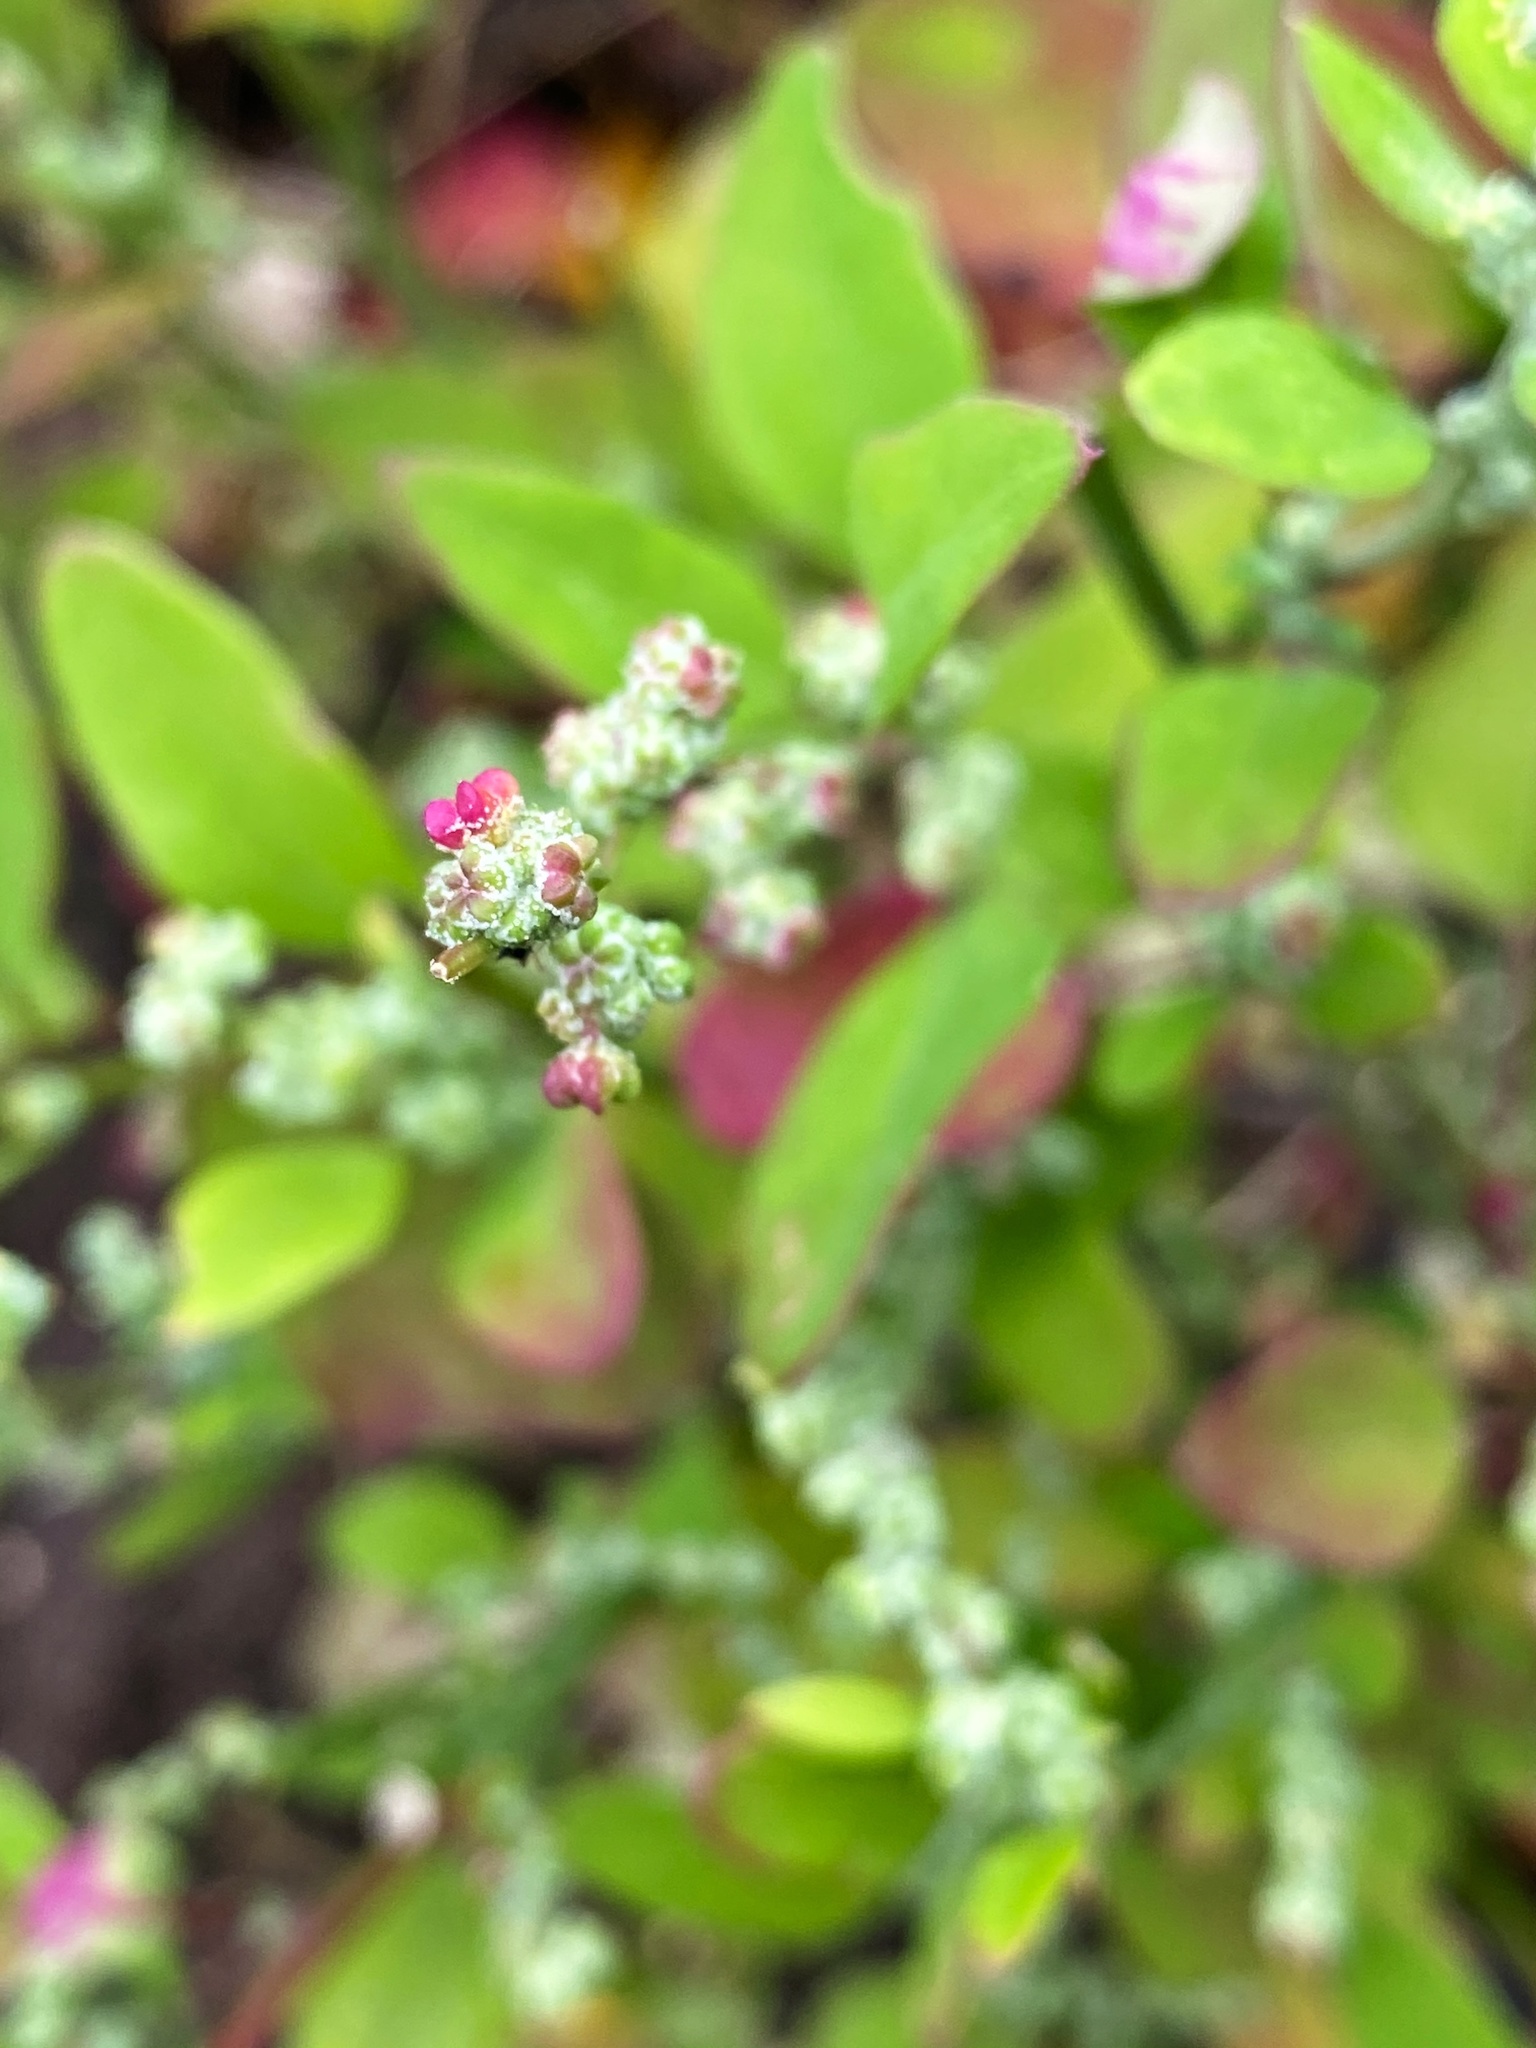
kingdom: Plantae
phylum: Tracheophyta
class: Magnoliopsida
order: Caryophyllales
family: Amaranthaceae
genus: Chenopodium
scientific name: Chenopodium album
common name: Fat-hen
